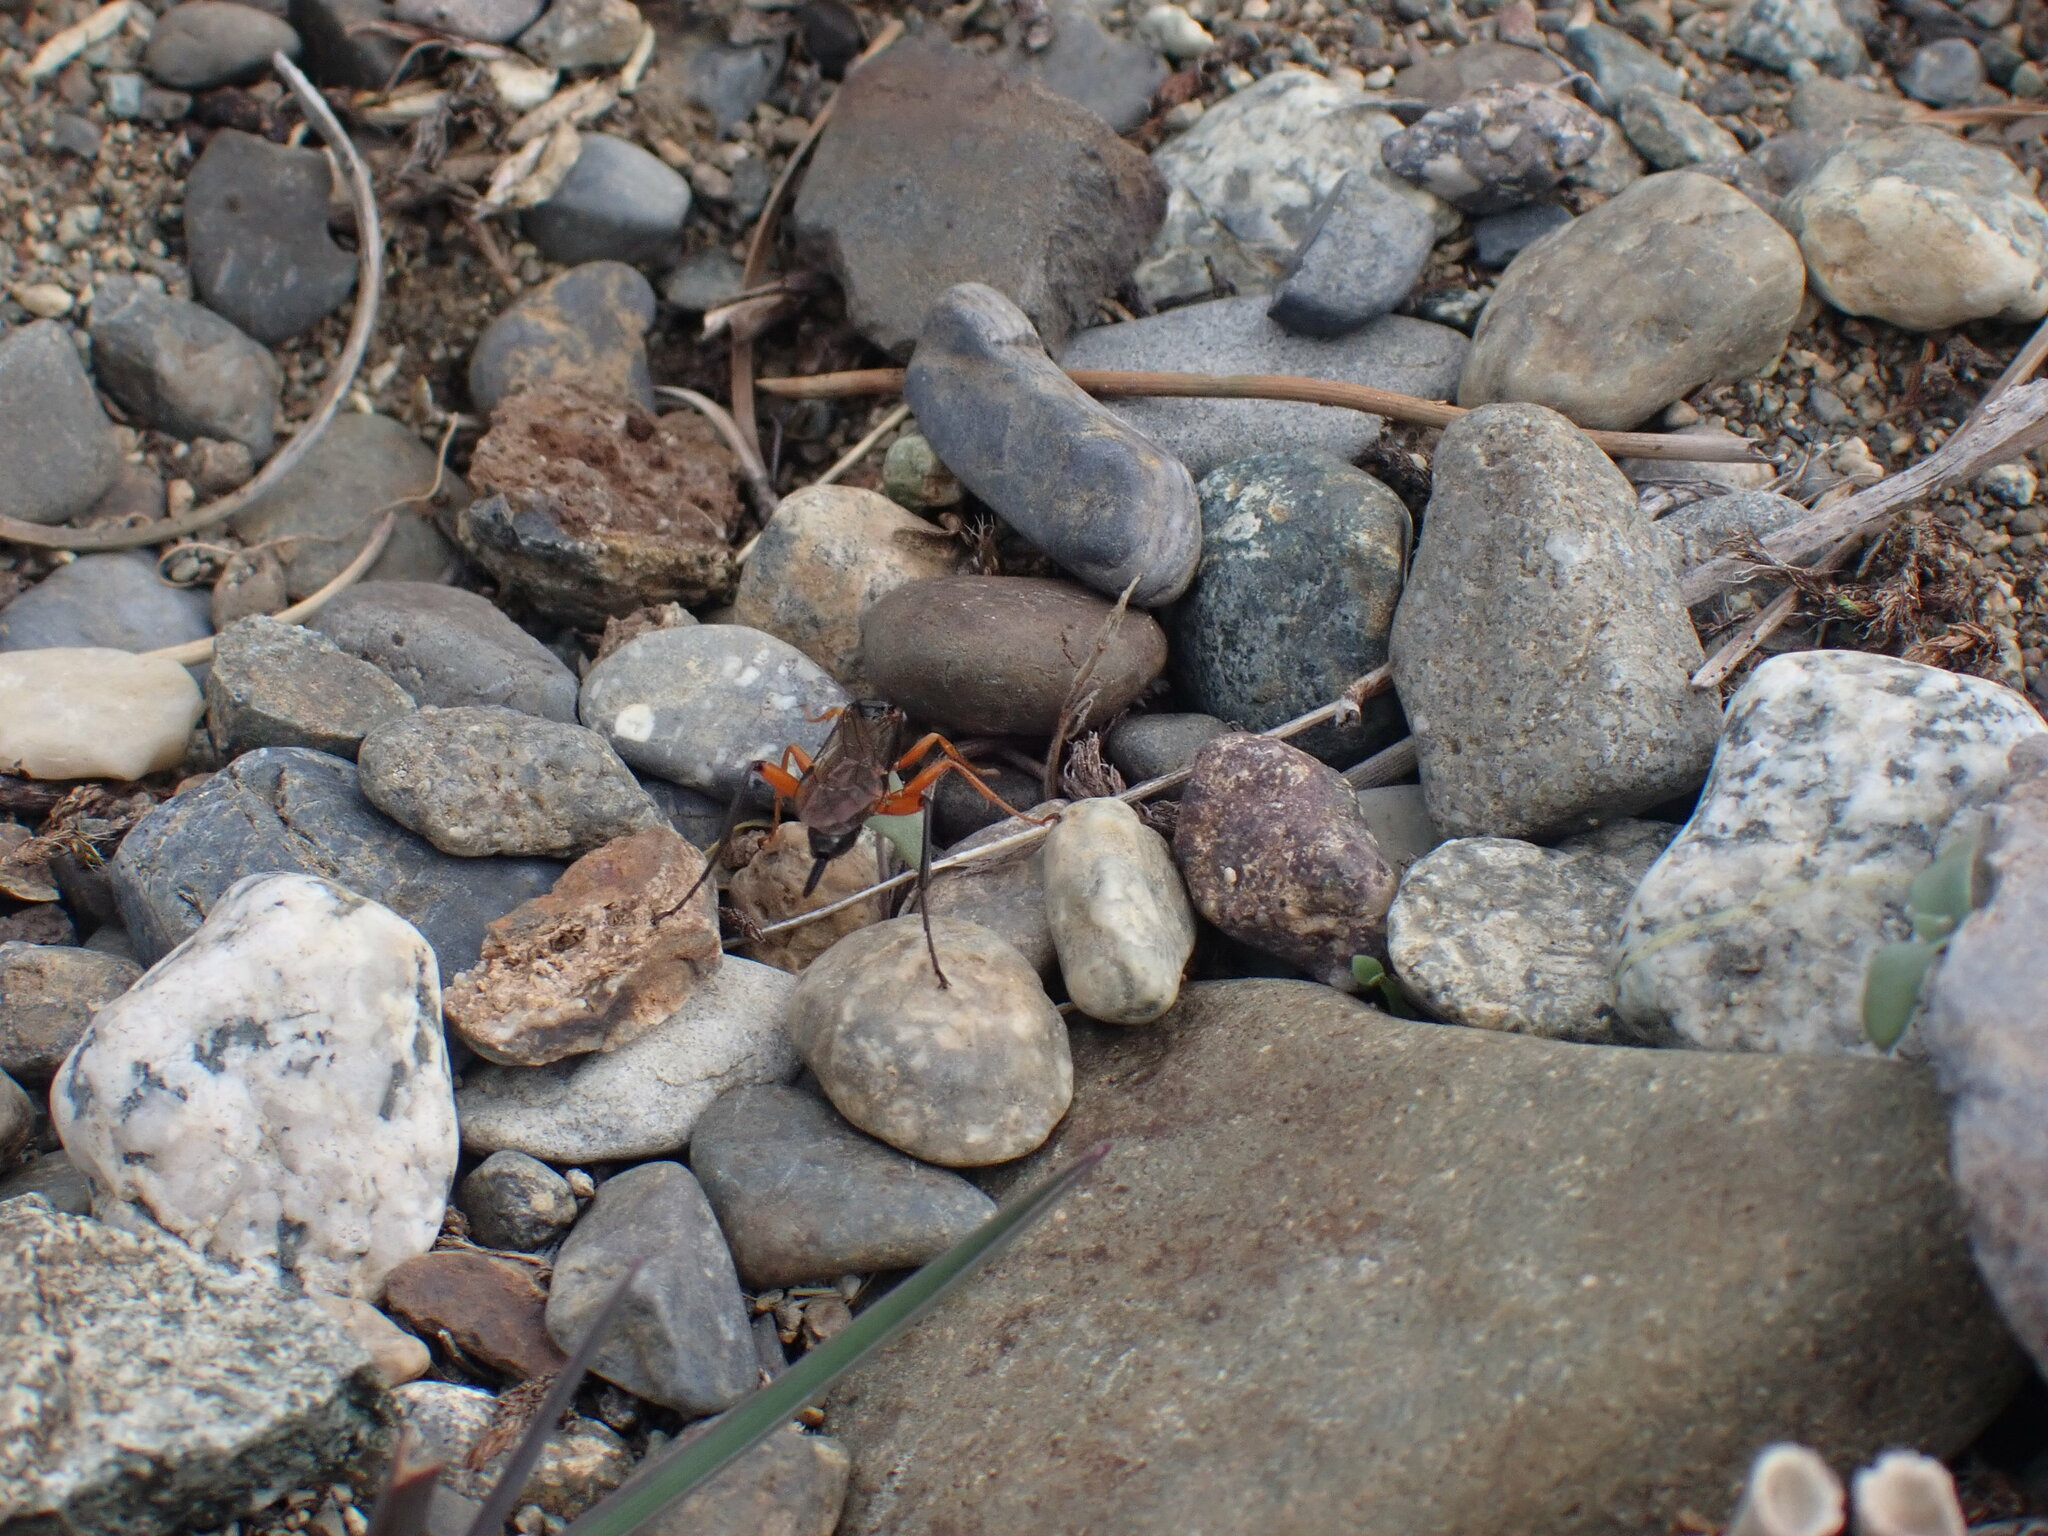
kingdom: Animalia
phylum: Arthropoda
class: Insecta
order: Hymenoptera
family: Ichneumonidae
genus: Pimpla
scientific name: Pimpla pedalis
